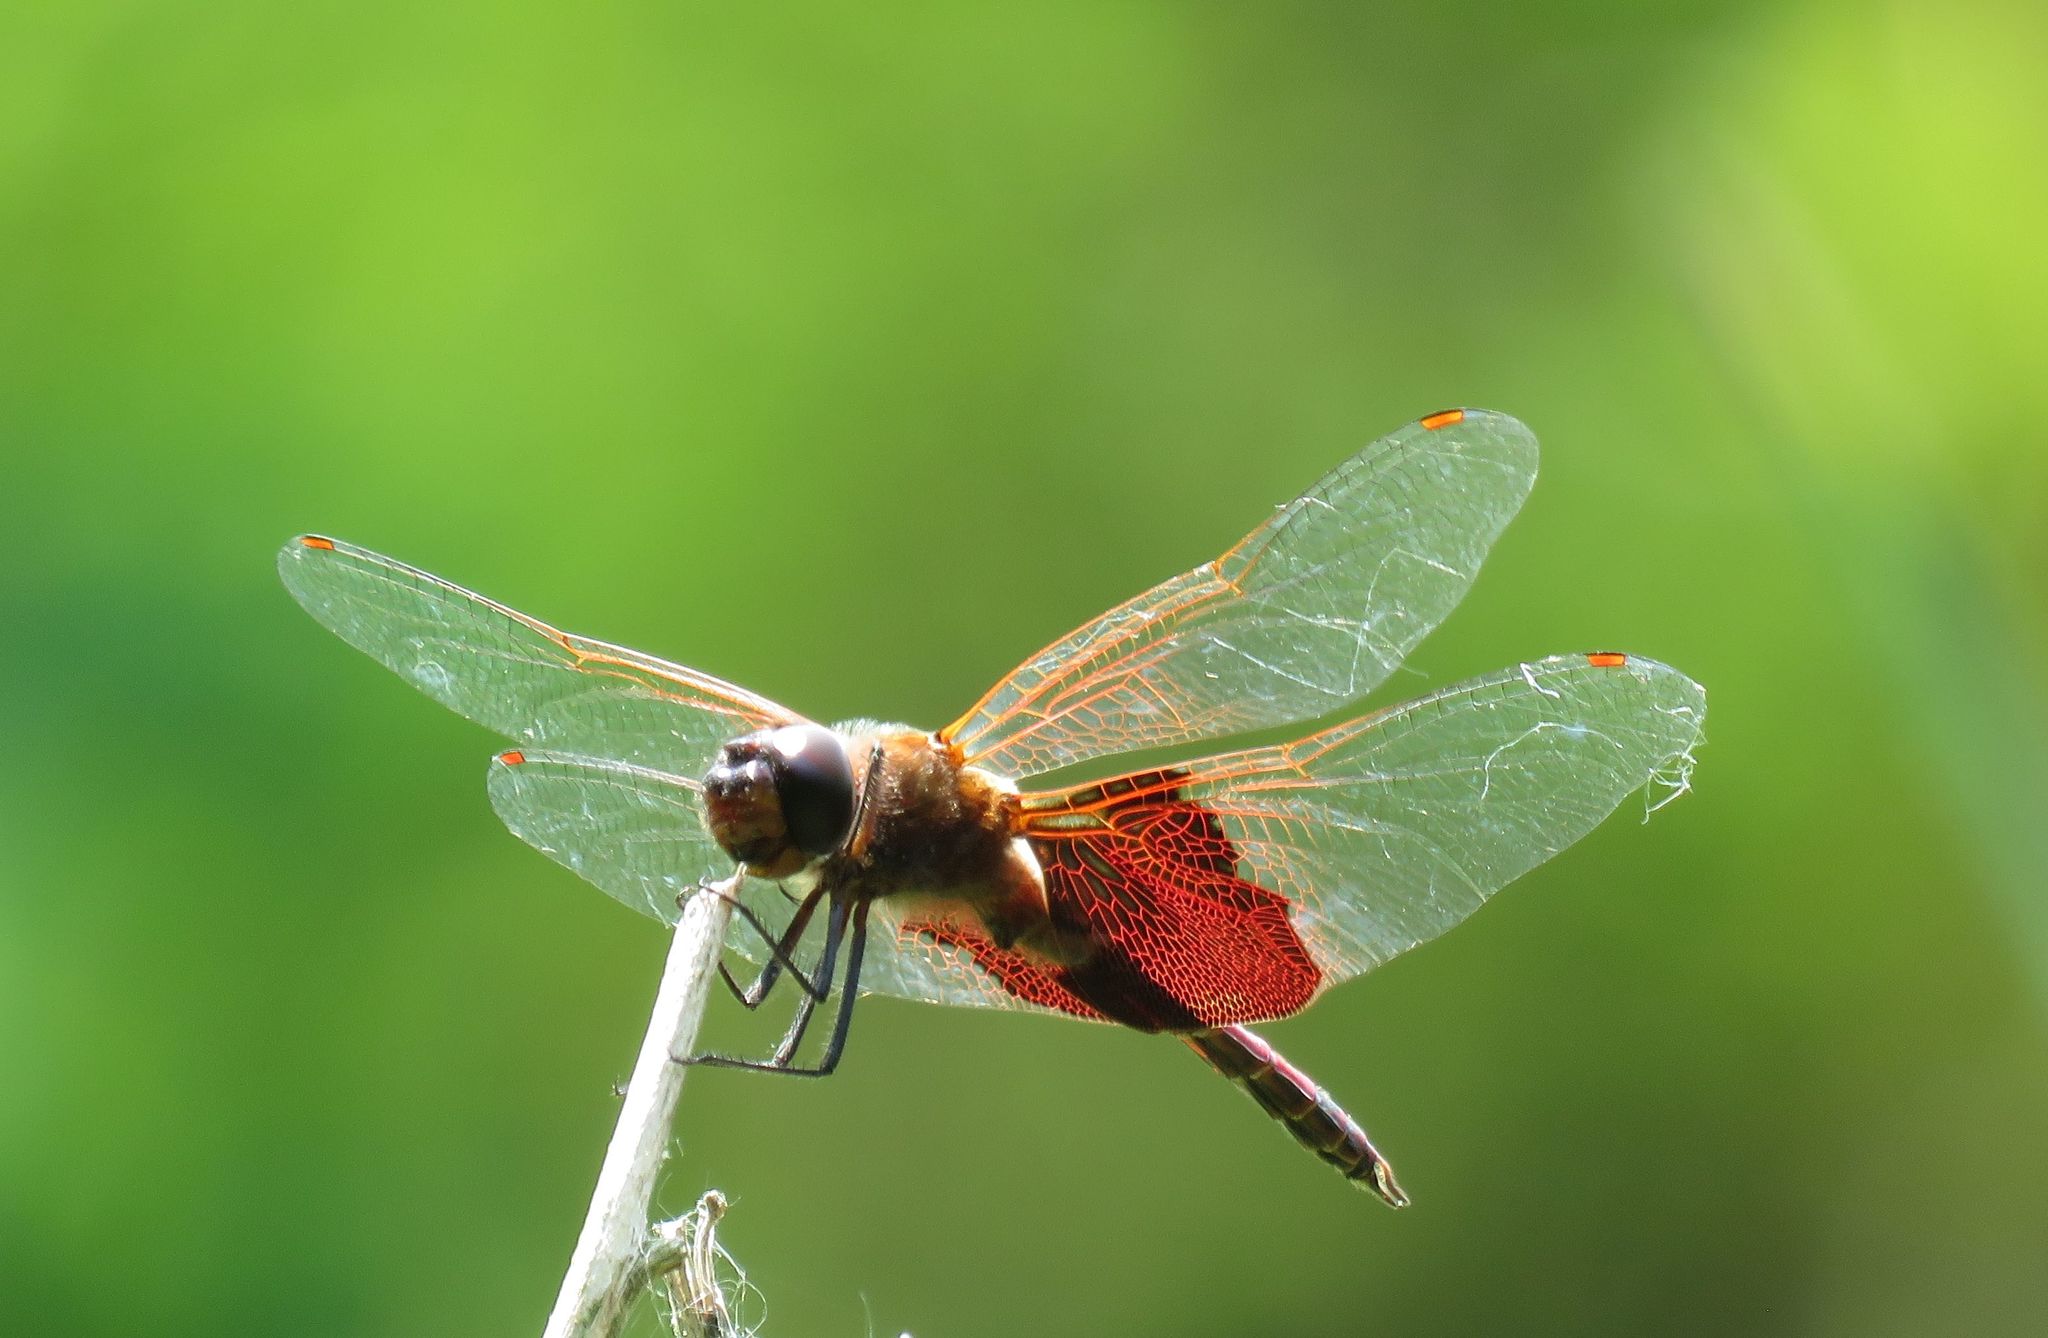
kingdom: Animalia
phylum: Arthropoda
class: Insecta
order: Odonata
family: Libellulidae
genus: Tramea
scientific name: Tramea carolina
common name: Carolina saddlebags
